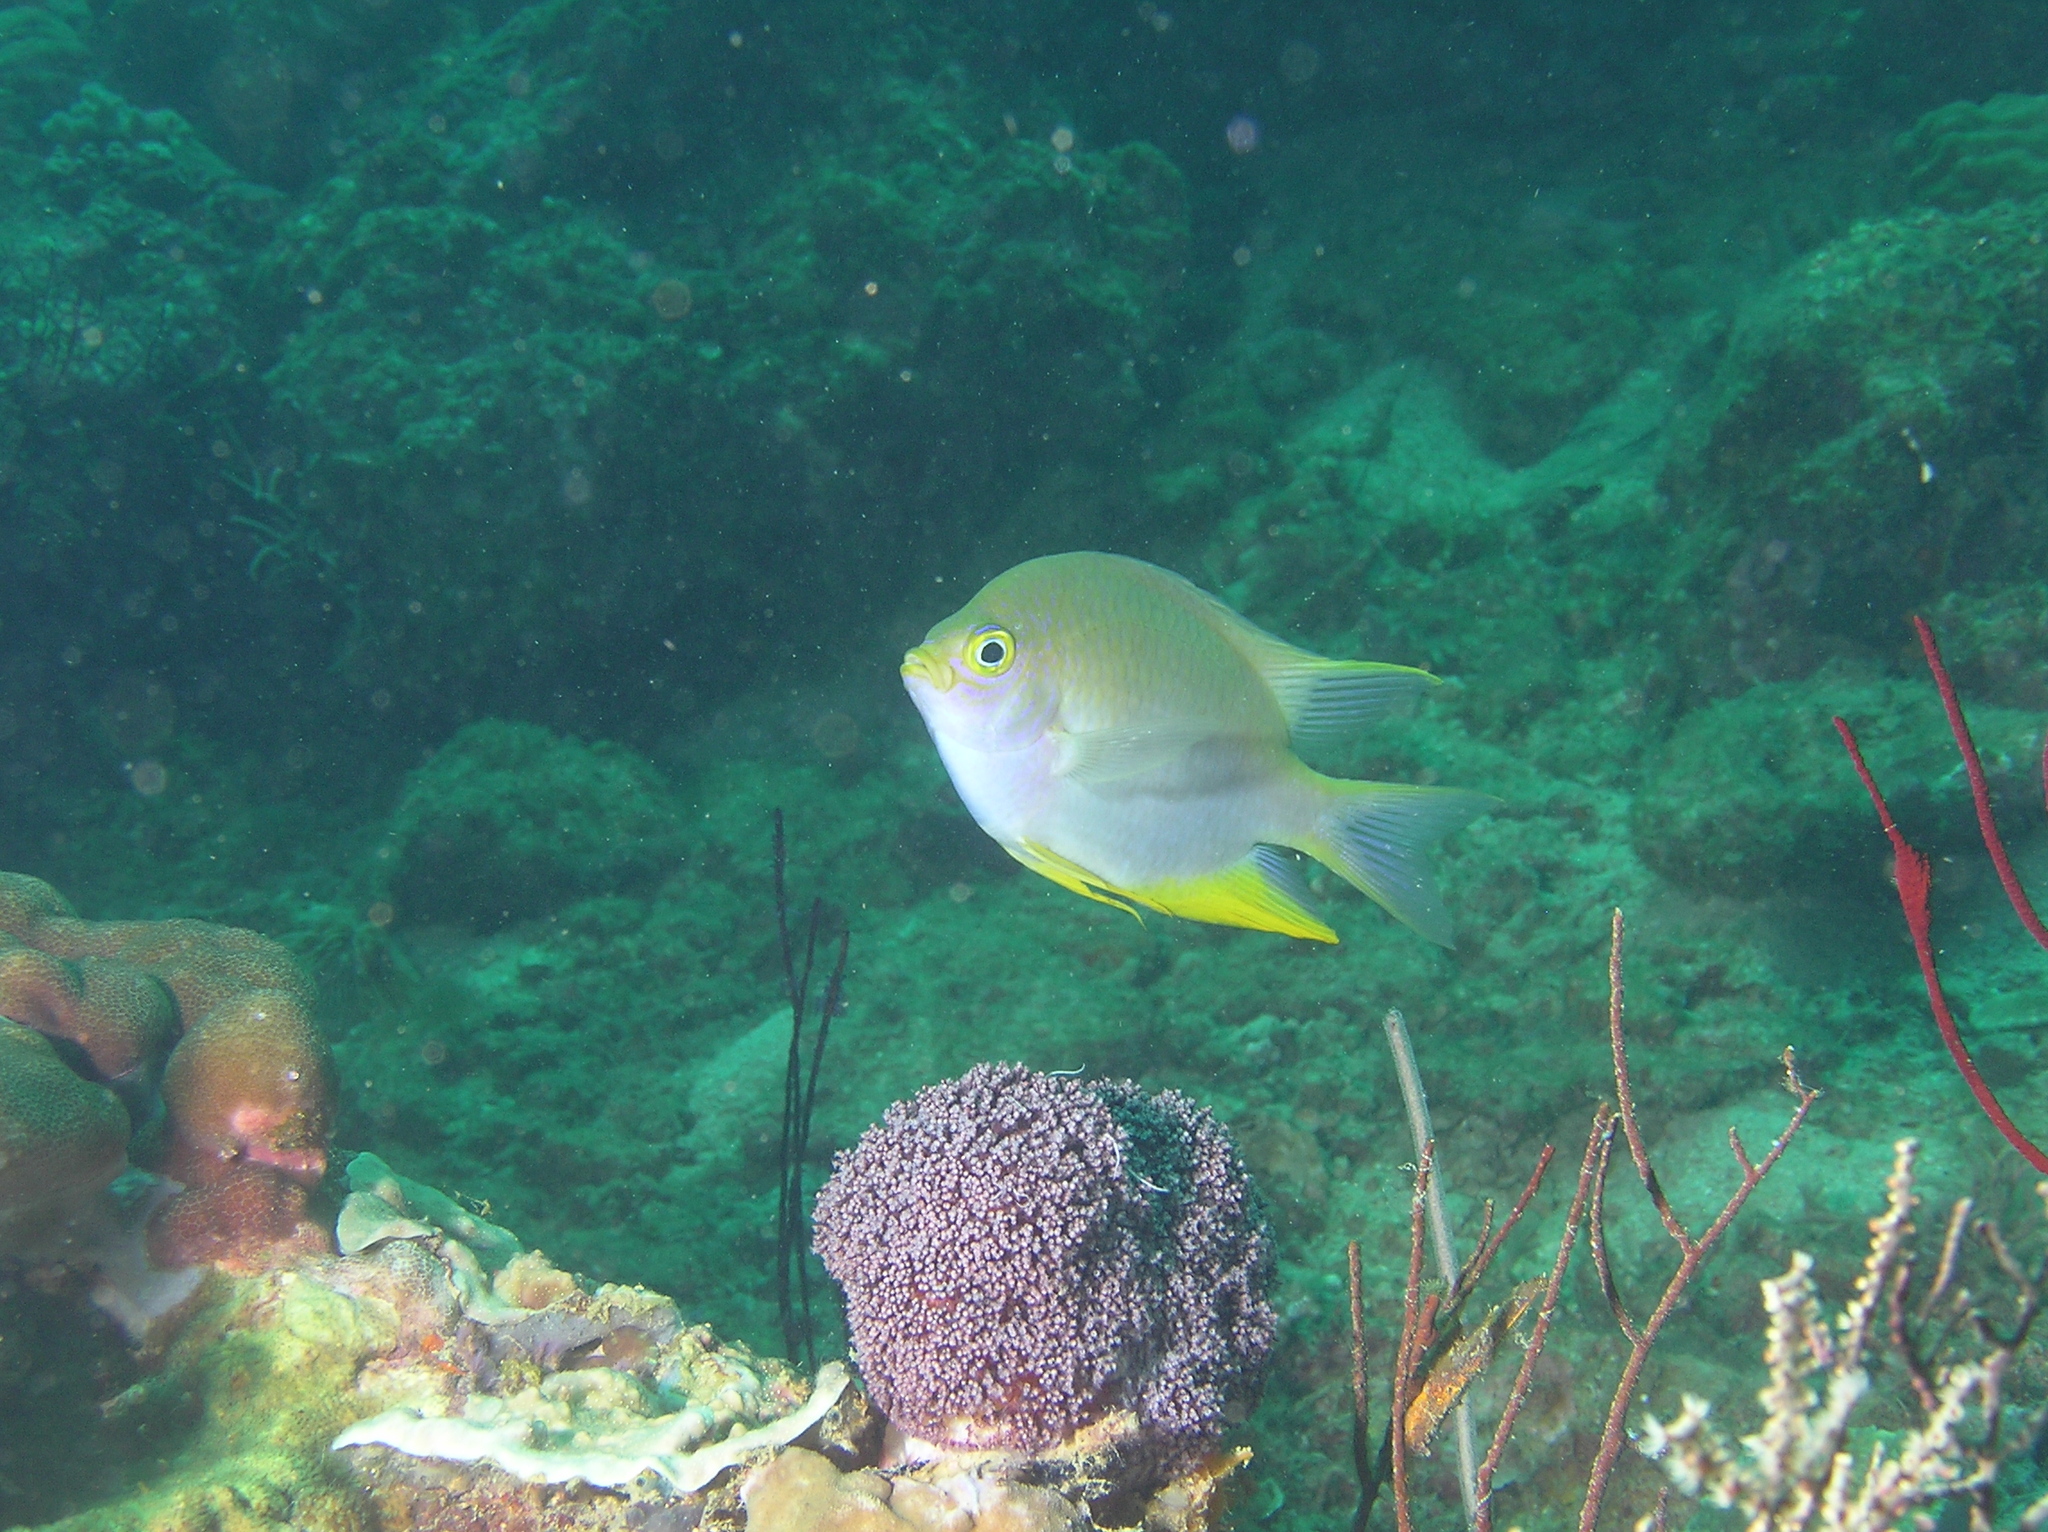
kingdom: Animalia
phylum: Chordata
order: Perciformes
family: Pomacentridae
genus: Amblyglyphidodon
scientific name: Amblyglyphidodon aureus
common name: Golden damsel
